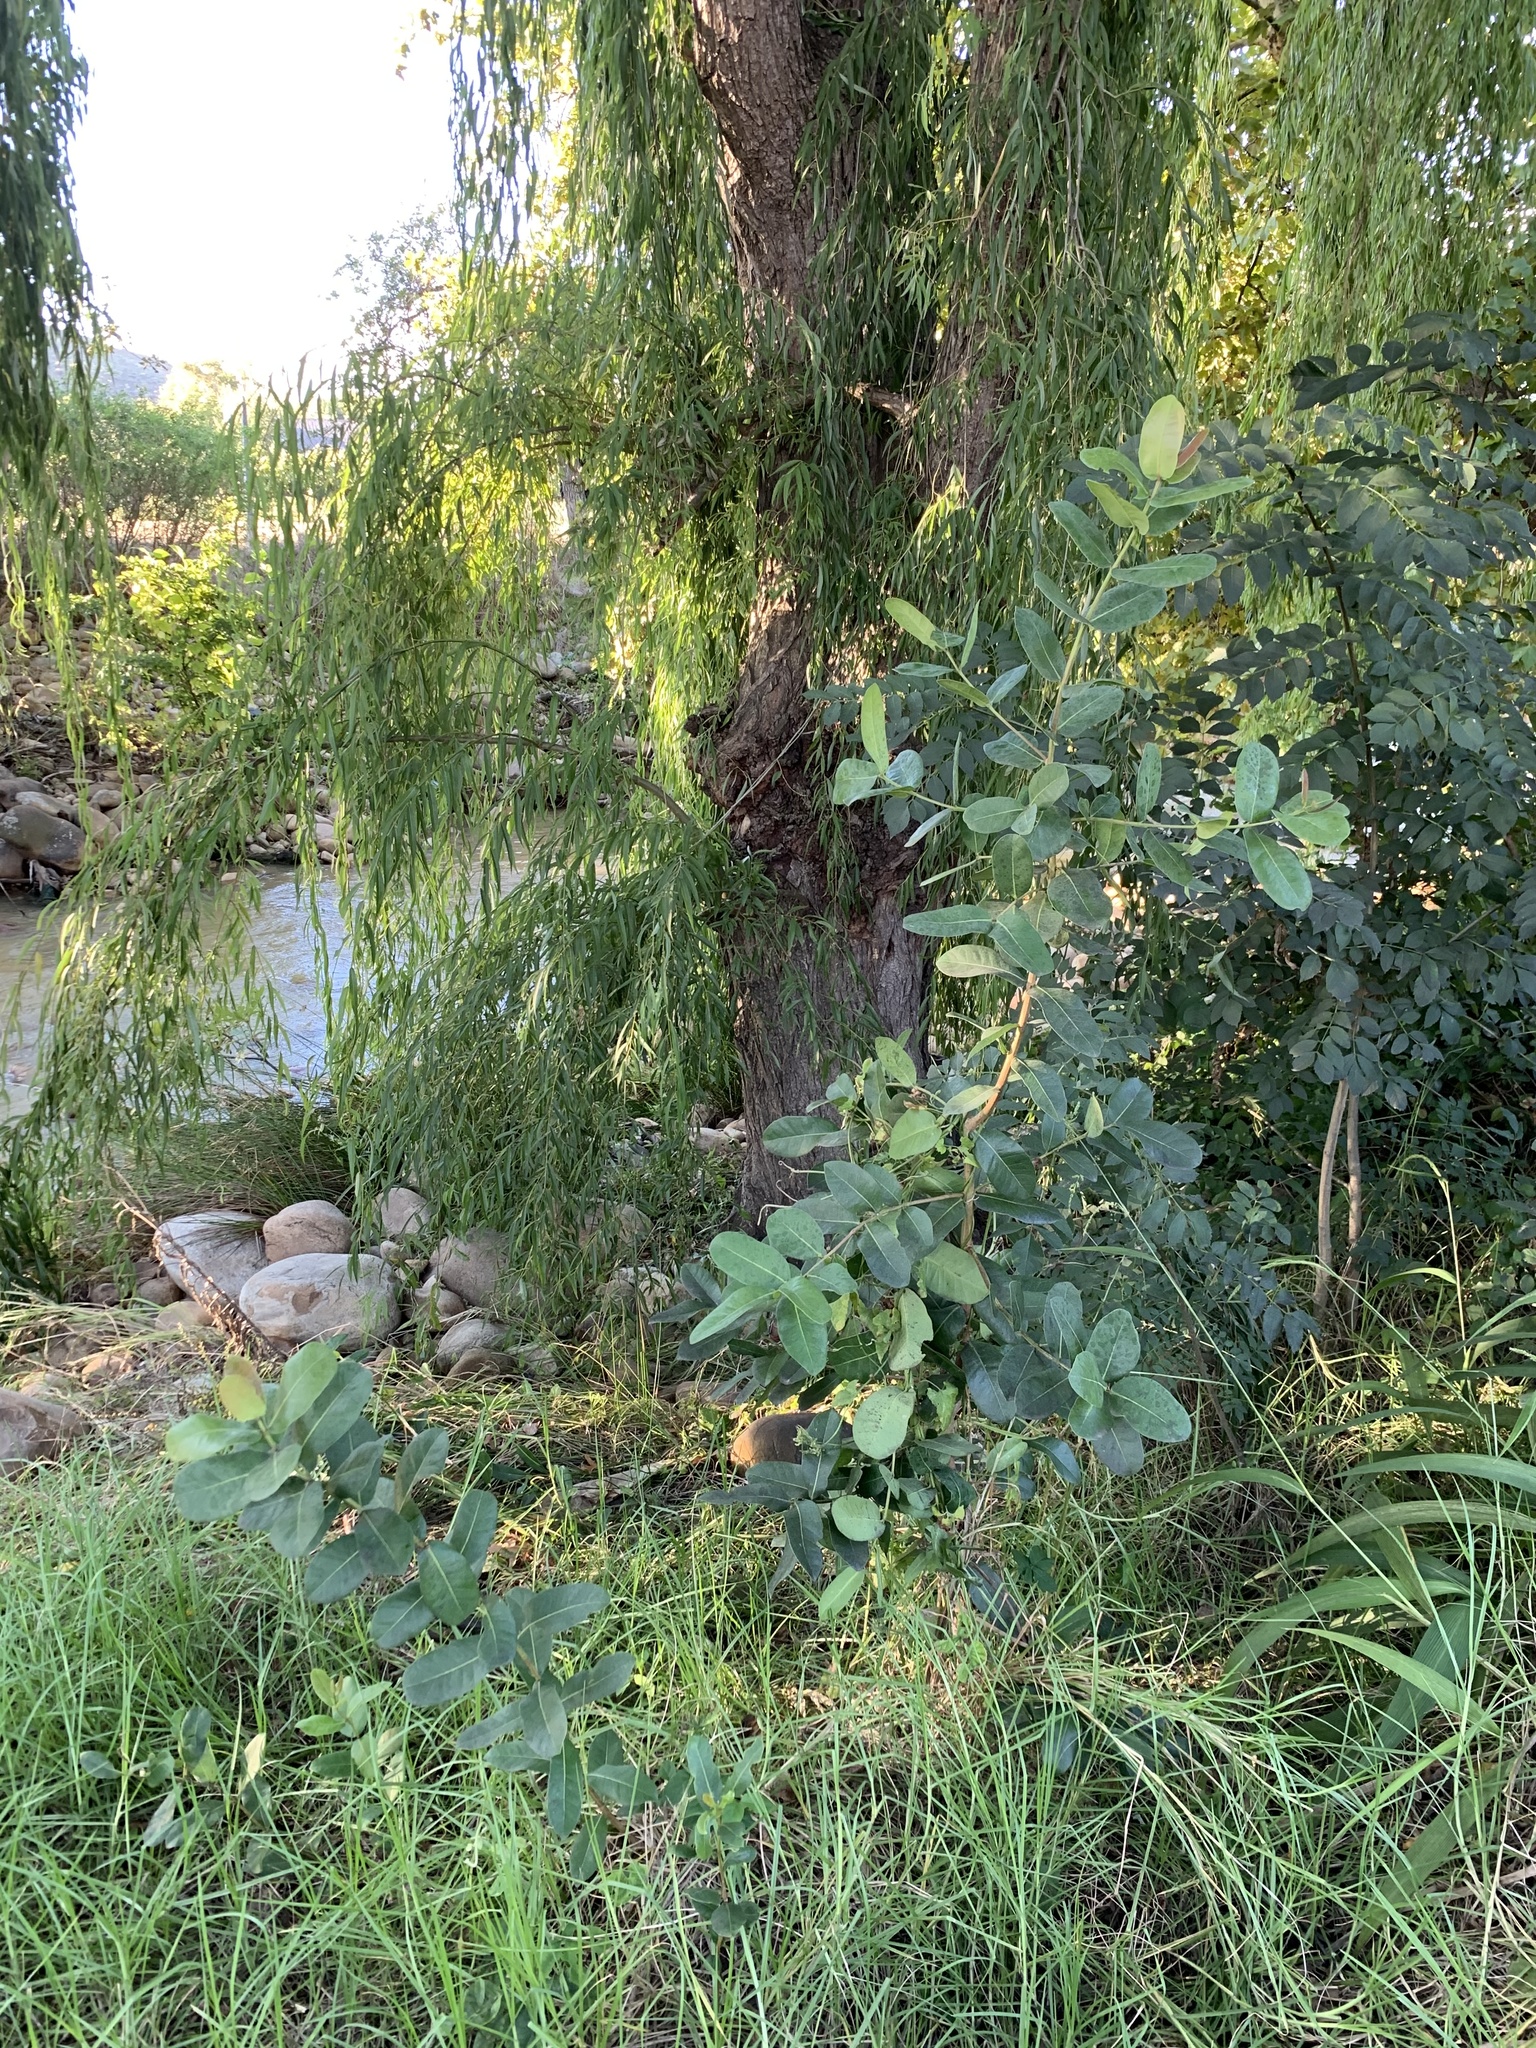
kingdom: Plantae
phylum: Tracheophyta
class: Magnoliopsida
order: Myrtales
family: Myrtaceae
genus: Syzygium
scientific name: Syzygium cordatum
